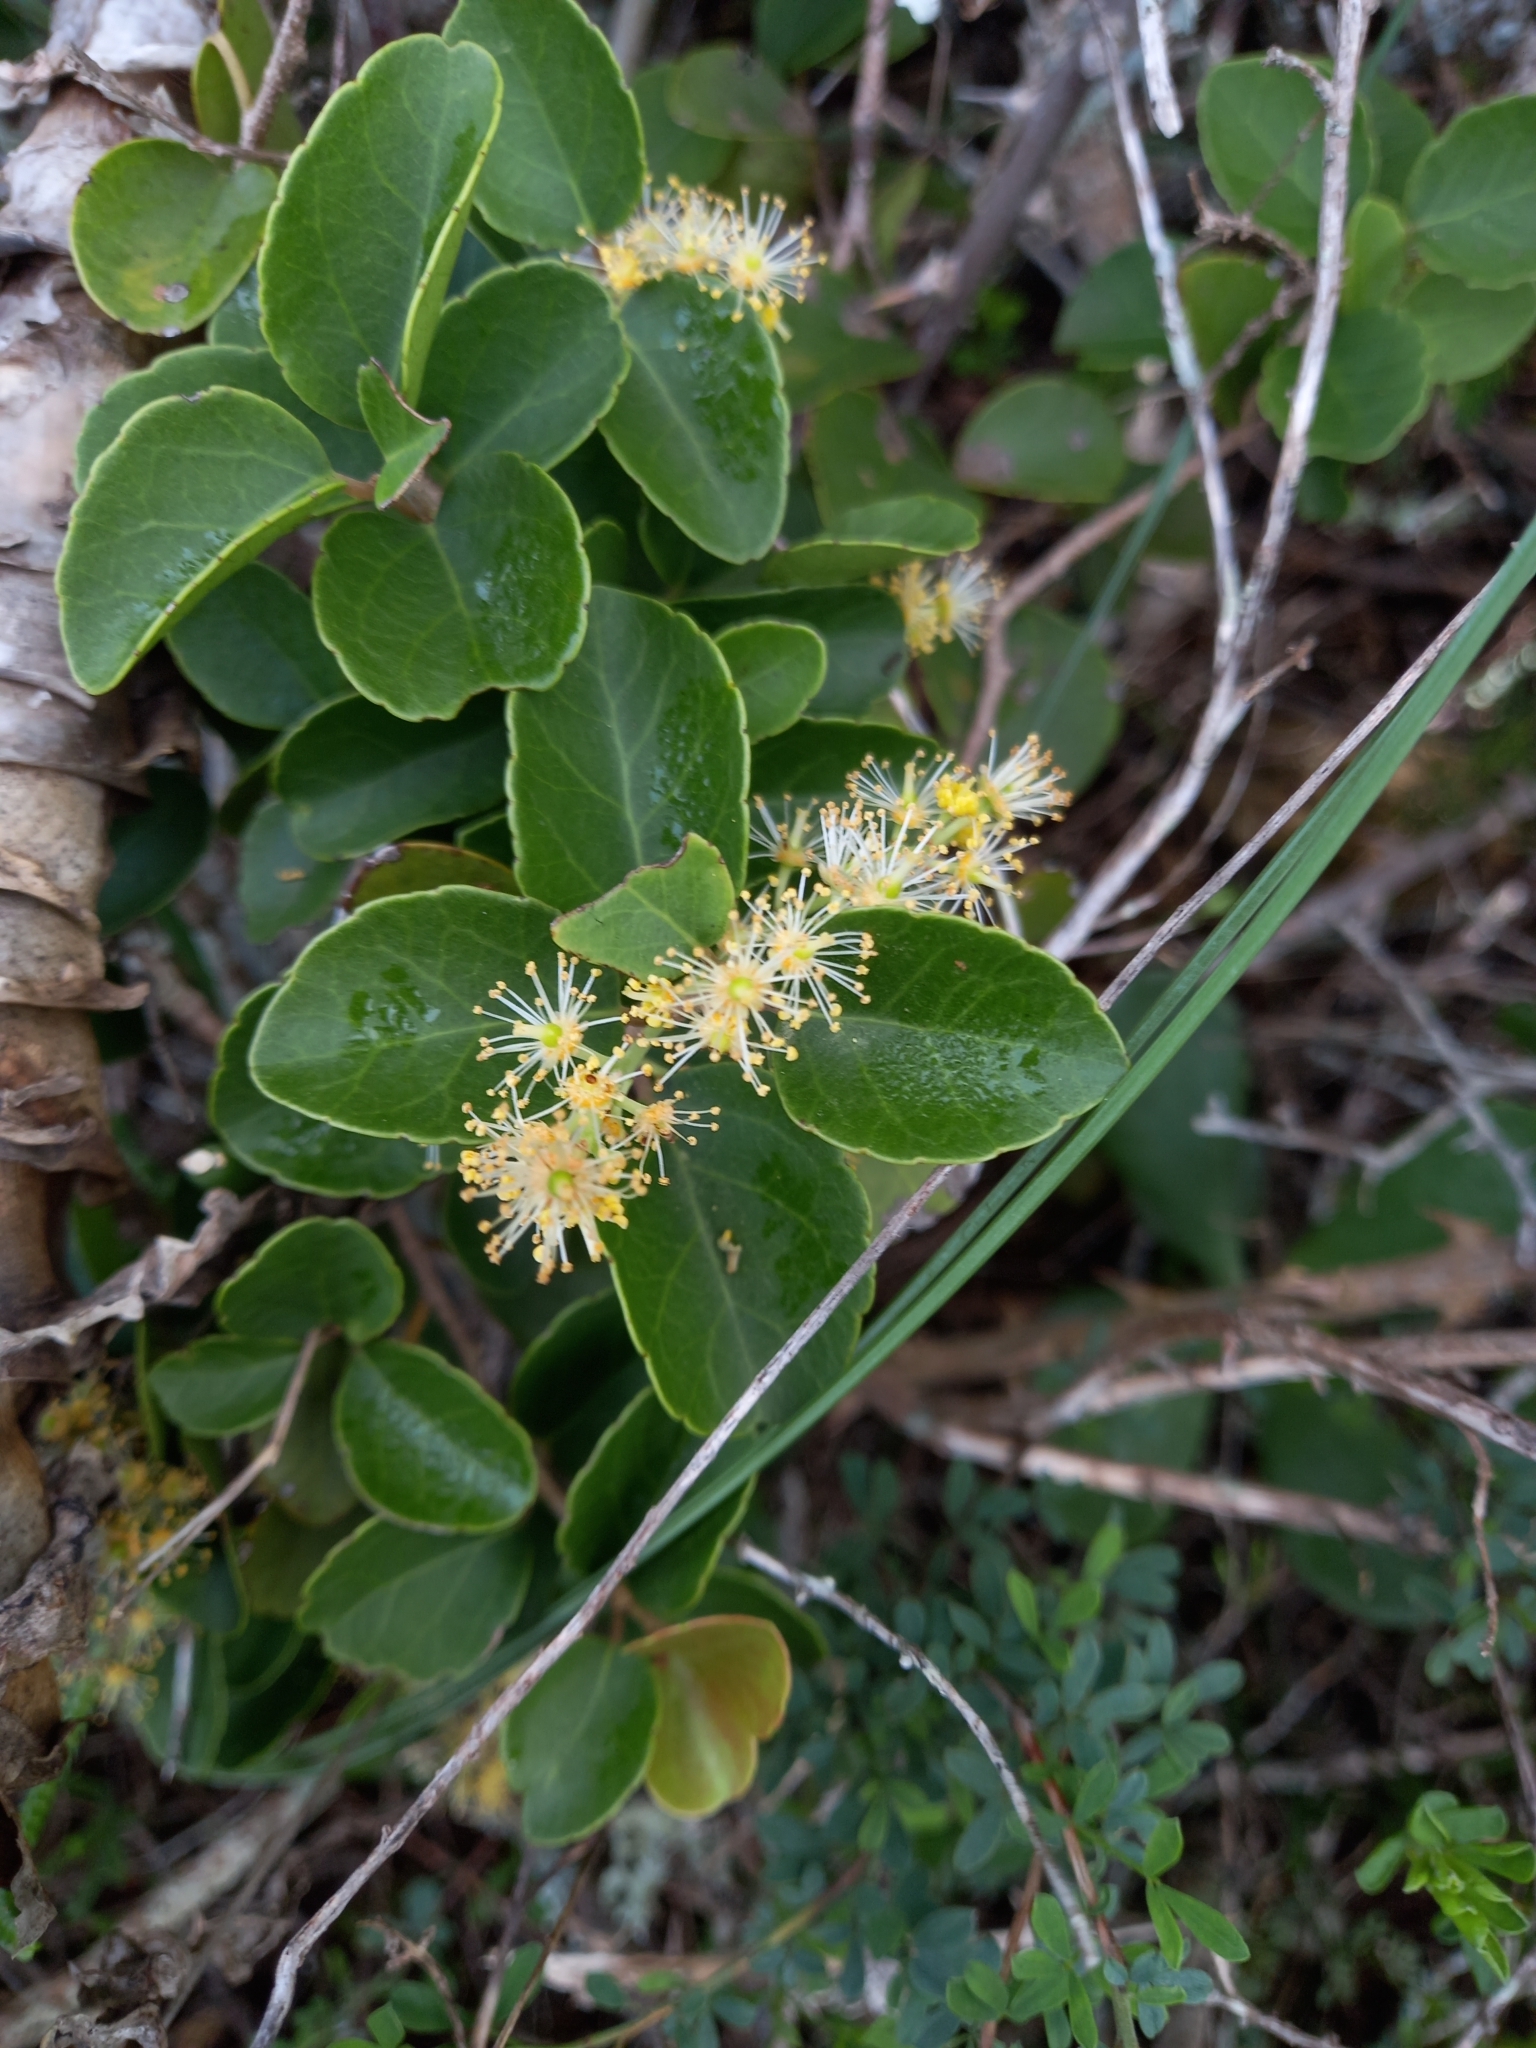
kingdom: Plantae
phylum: Tracheophyta
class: Magnoliopsida
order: Malpighiales
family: Salicaceae
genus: Scolopia
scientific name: Scolopia zeyheri
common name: Thorn pear
